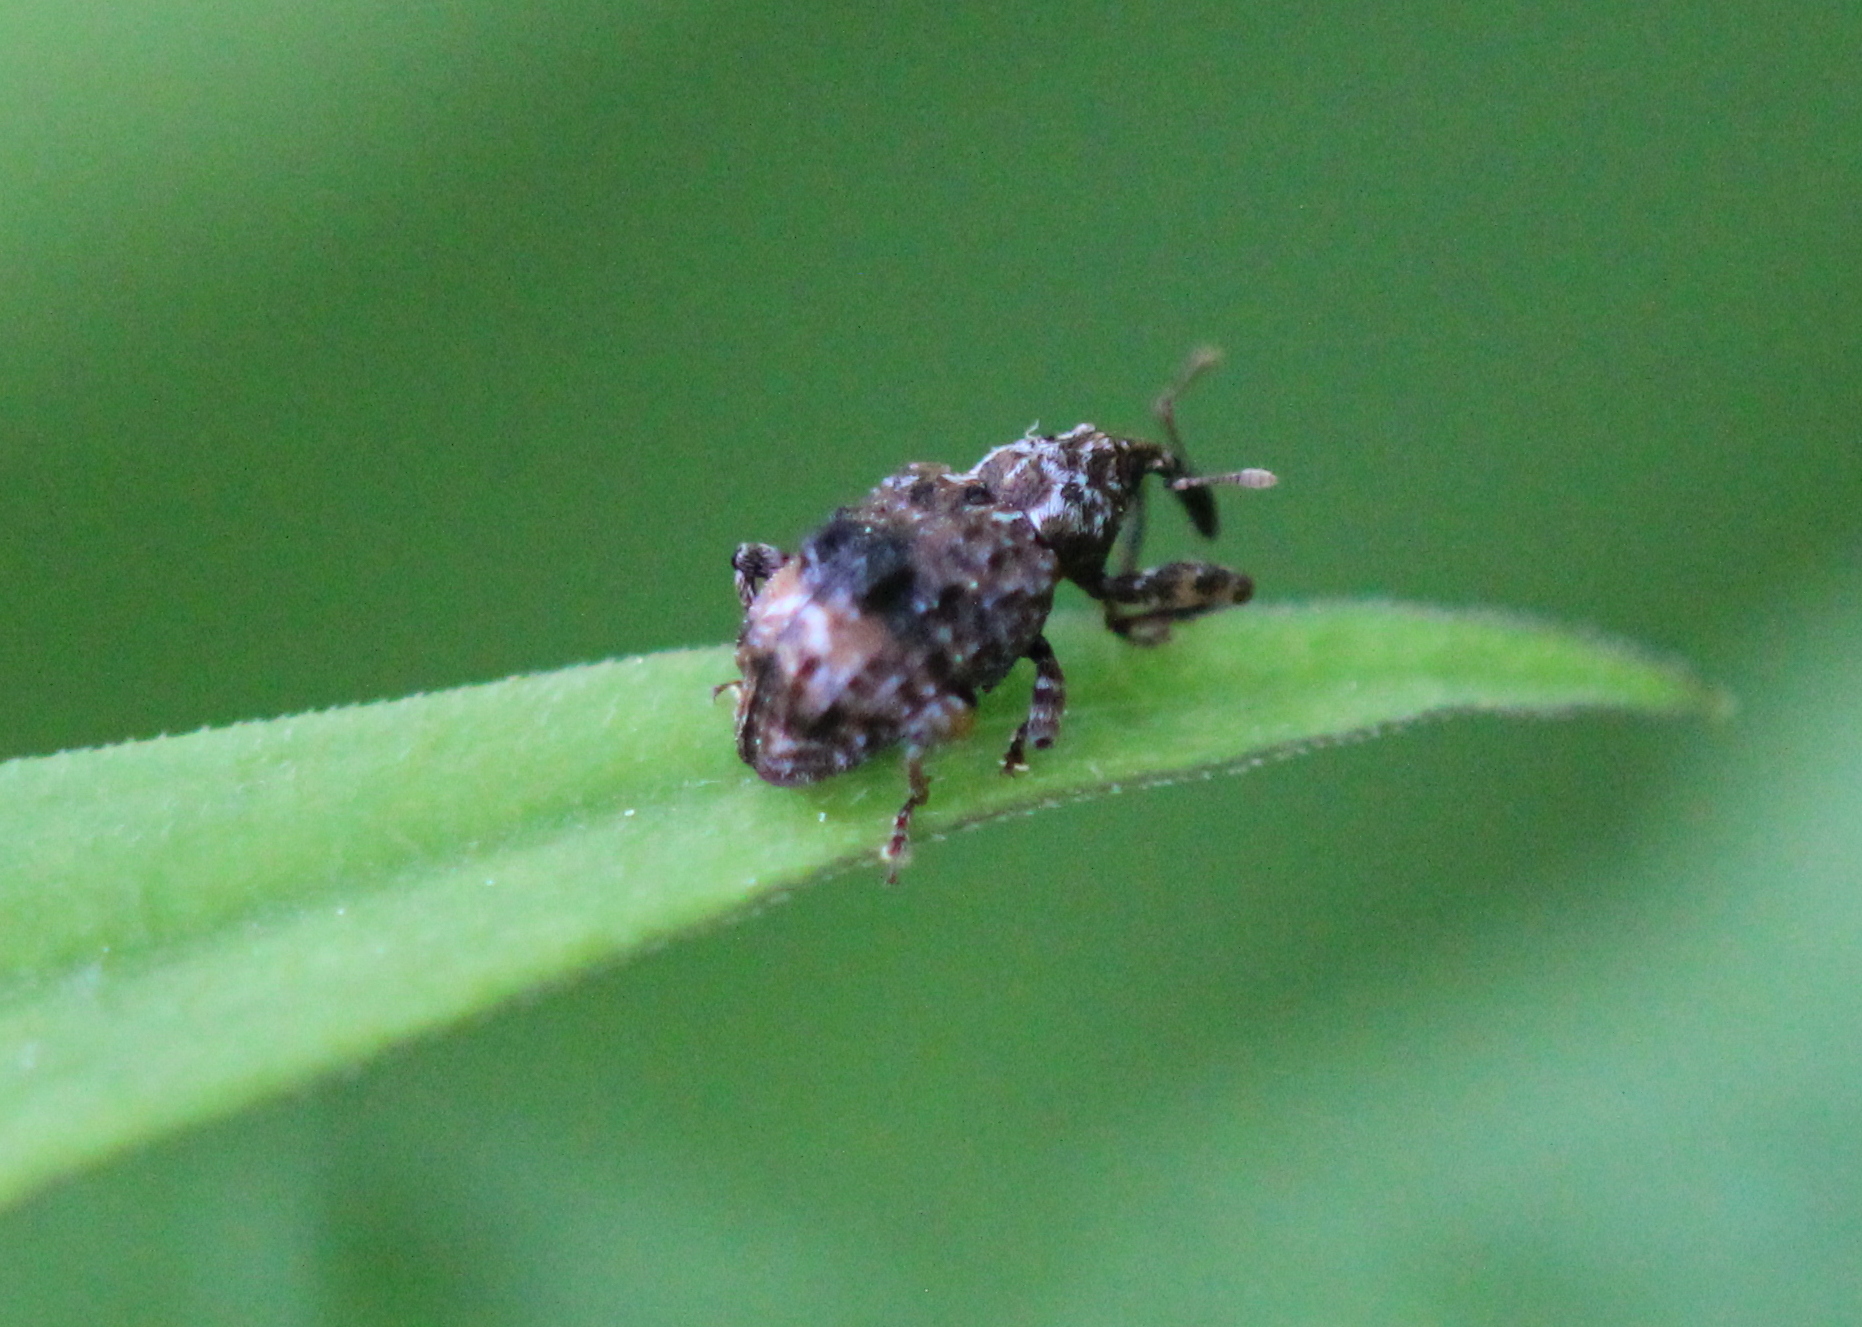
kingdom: Animalia
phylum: Arthropoda
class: Insecta
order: Coleoptera
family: Curculionidae
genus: Conotrachelus
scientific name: Conotrachelus nenuphar
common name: Plum curculio
